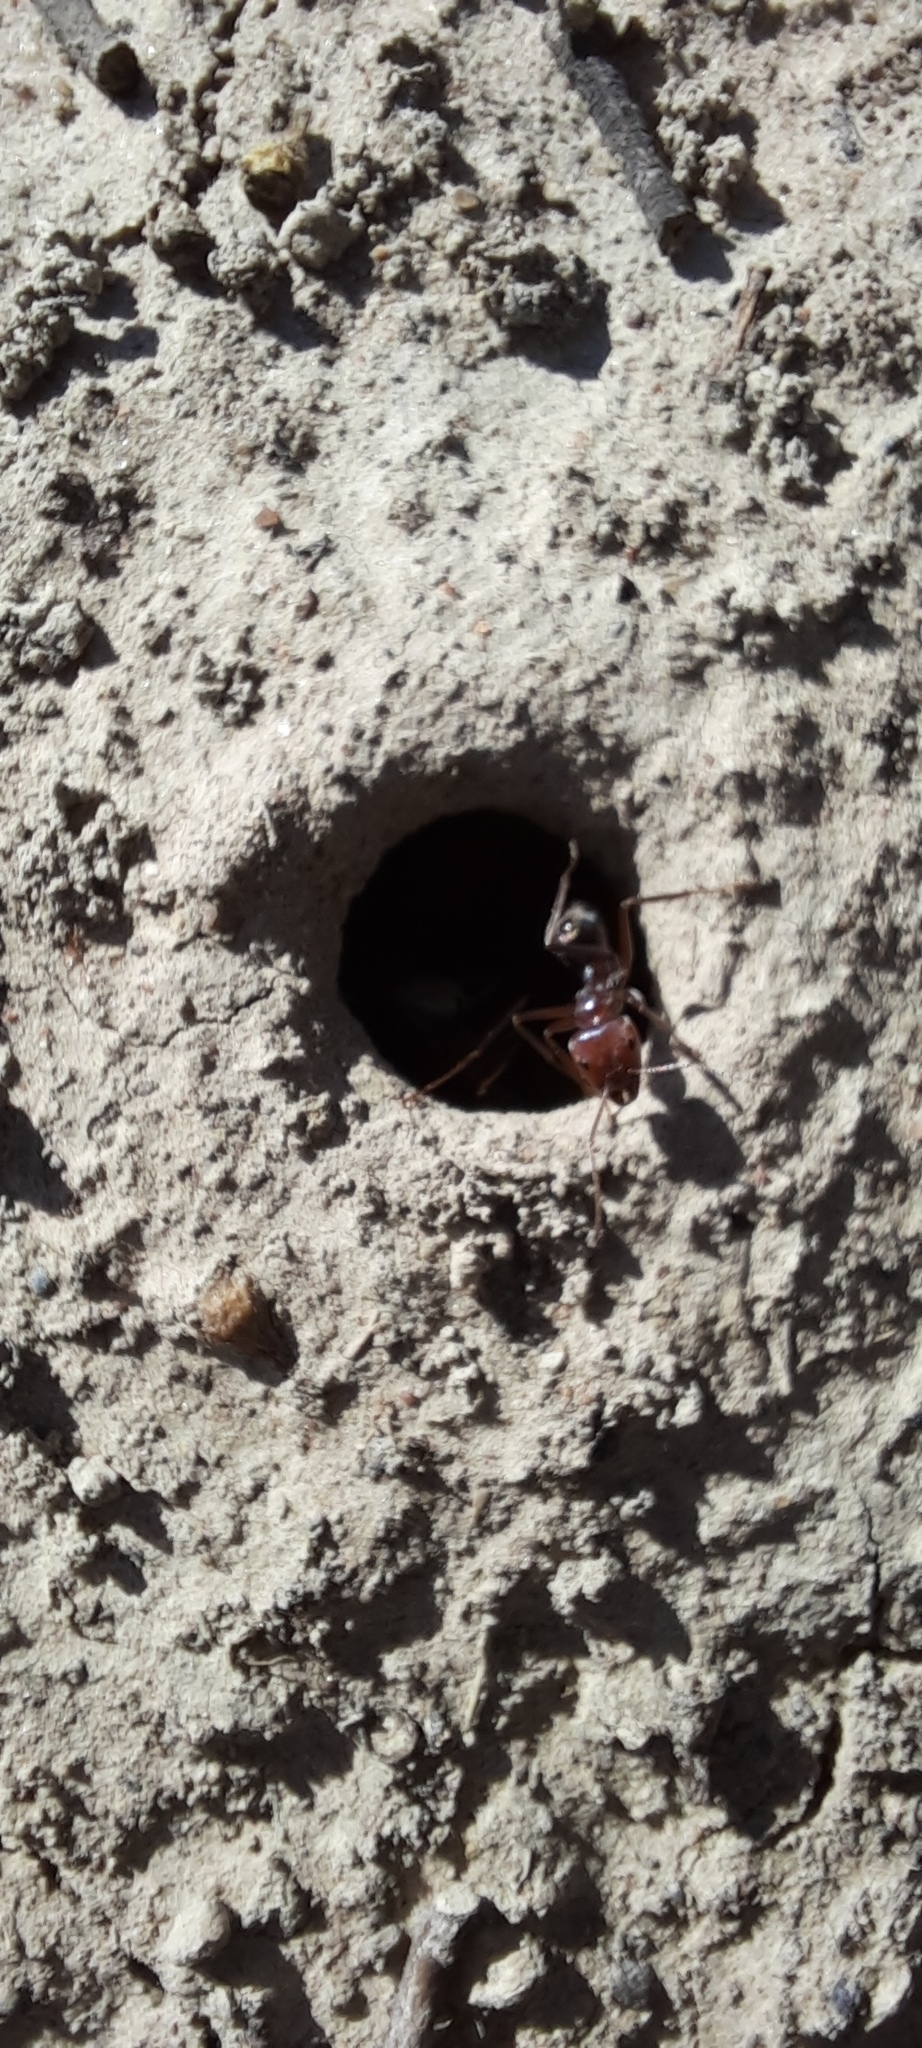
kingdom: Animalia
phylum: Arthropoda
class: Insecta
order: Hymenoptera
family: Formicidae
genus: Iridomyrmex
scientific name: Iridomyrmex purpureus
